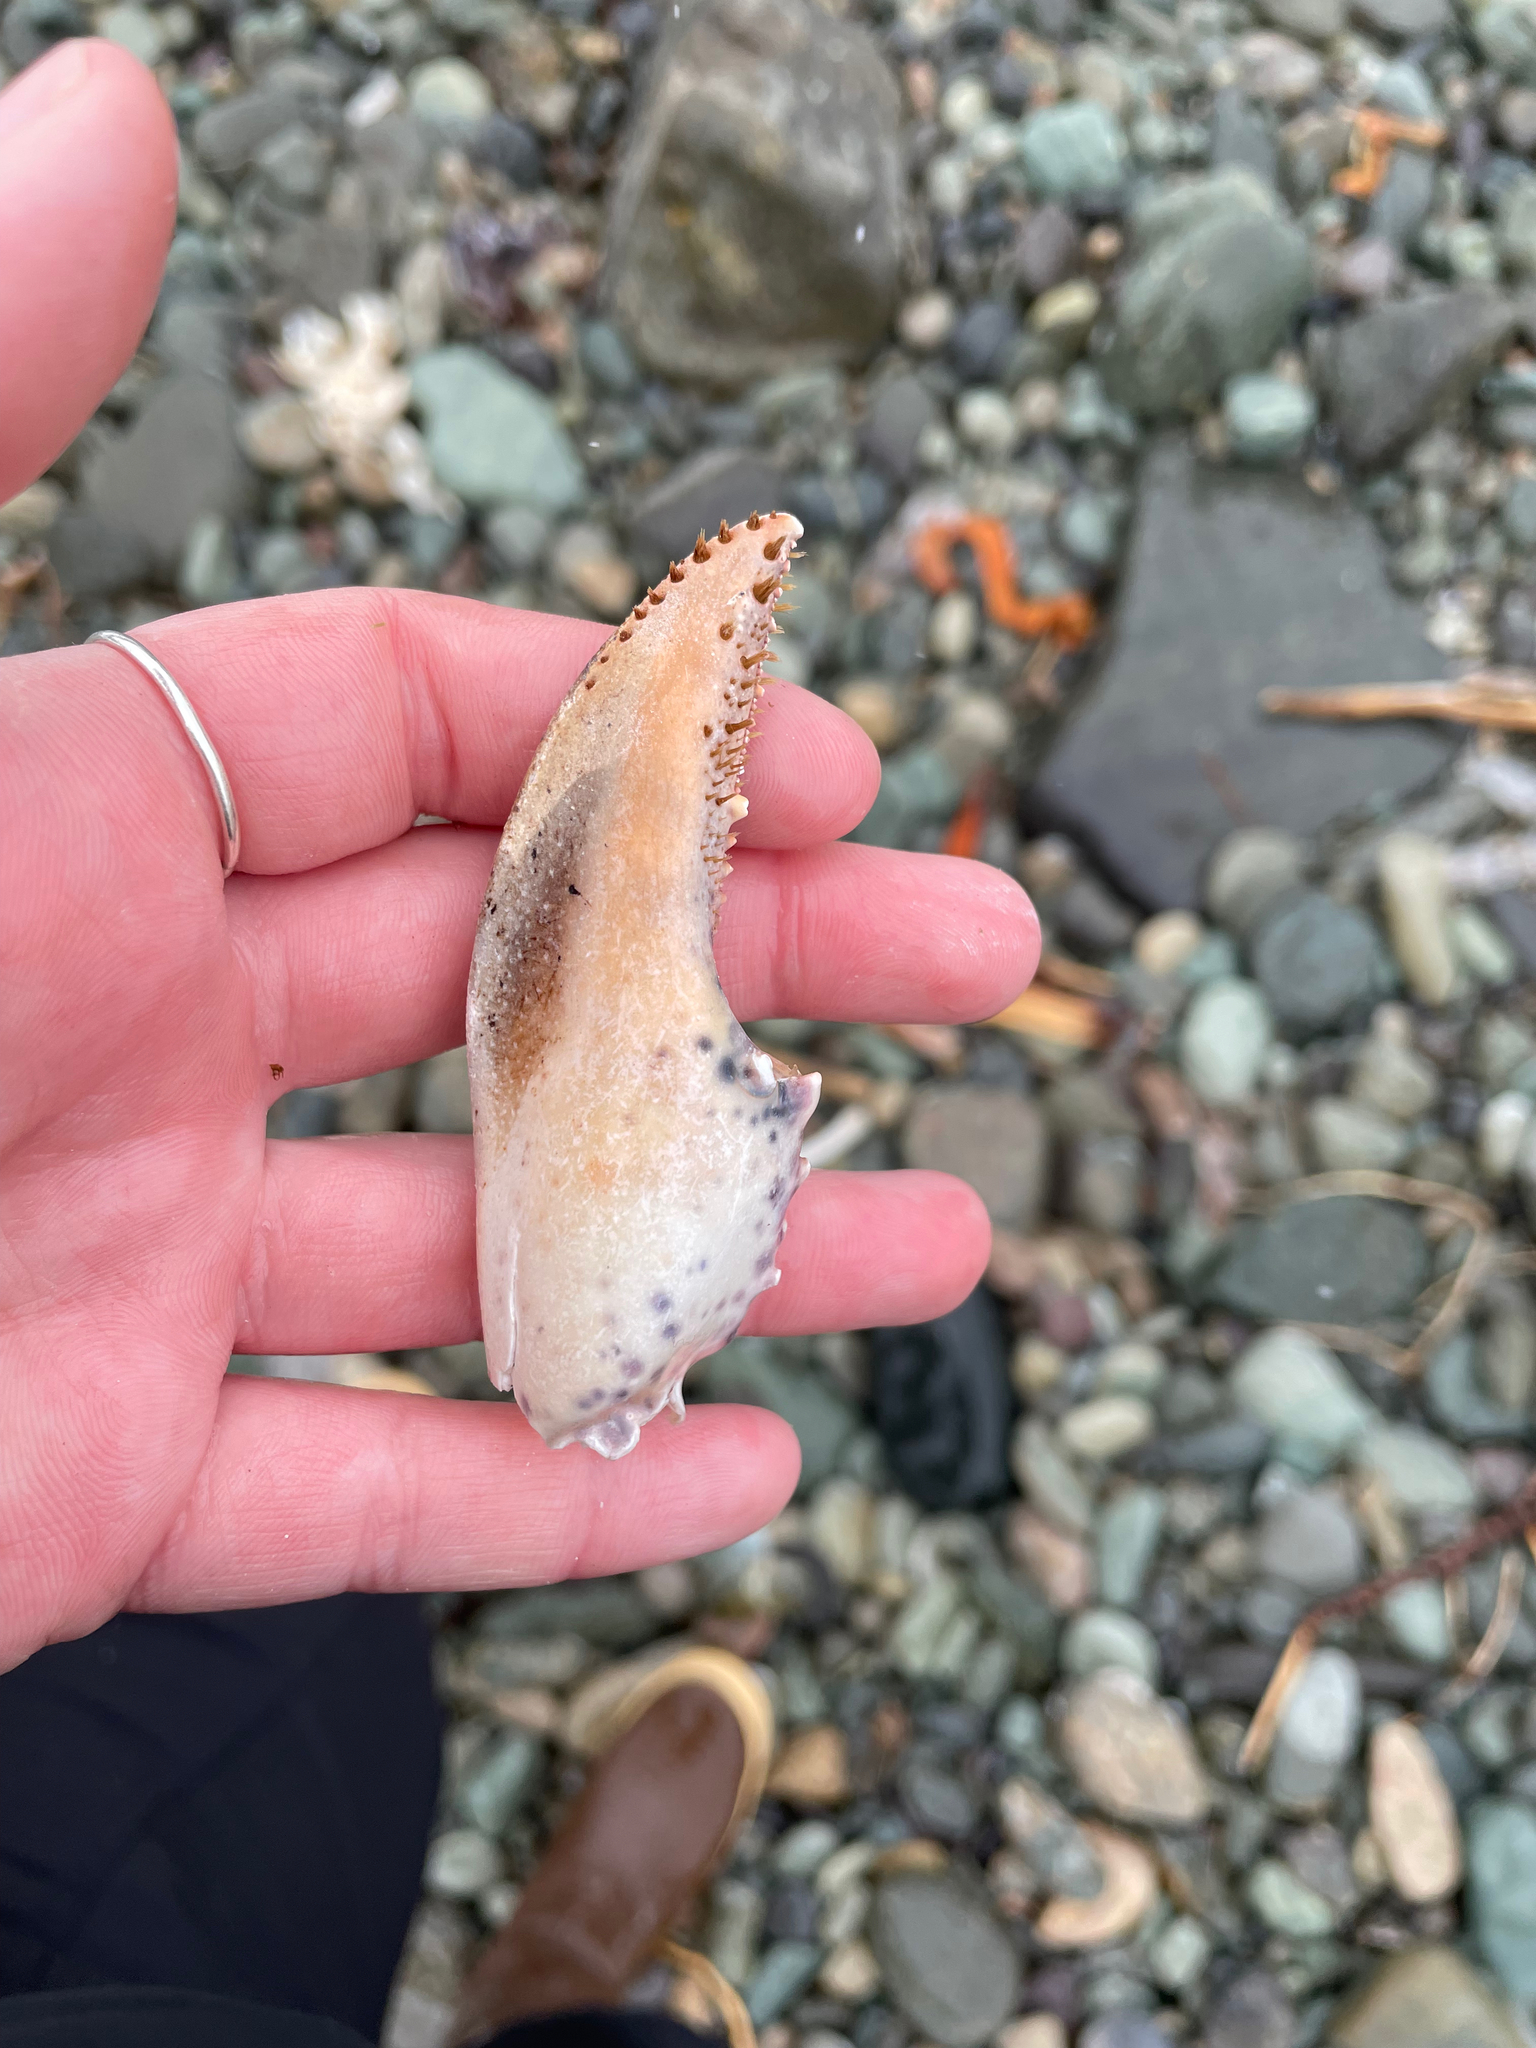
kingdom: Animalia
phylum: Arthropoda
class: Malacostraca
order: Decapoda
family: Nephropidae
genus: Homarus
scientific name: Homarus americanus
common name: American lobster
